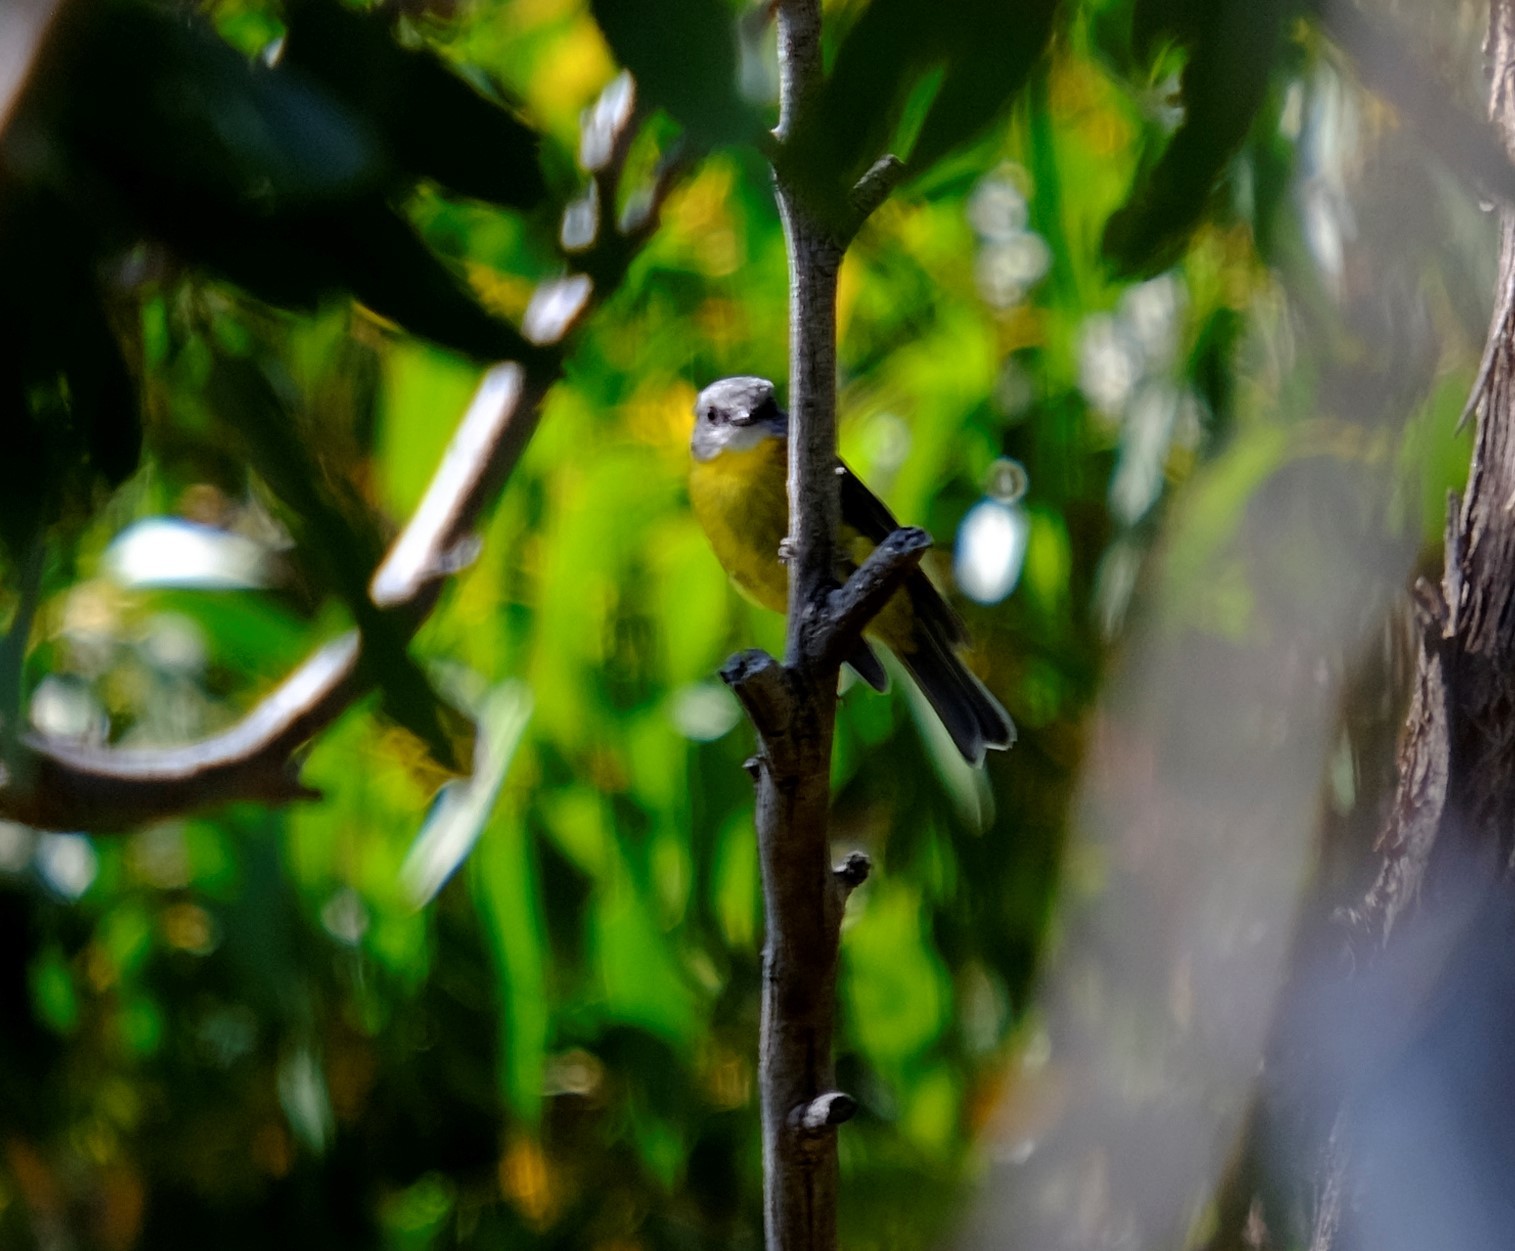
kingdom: Animalia
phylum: Chordata
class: Aves
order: Passeriformes
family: Petroicidae
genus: Eopsaltria
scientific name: Eopsaltria australis
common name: Eastern yellow robin
